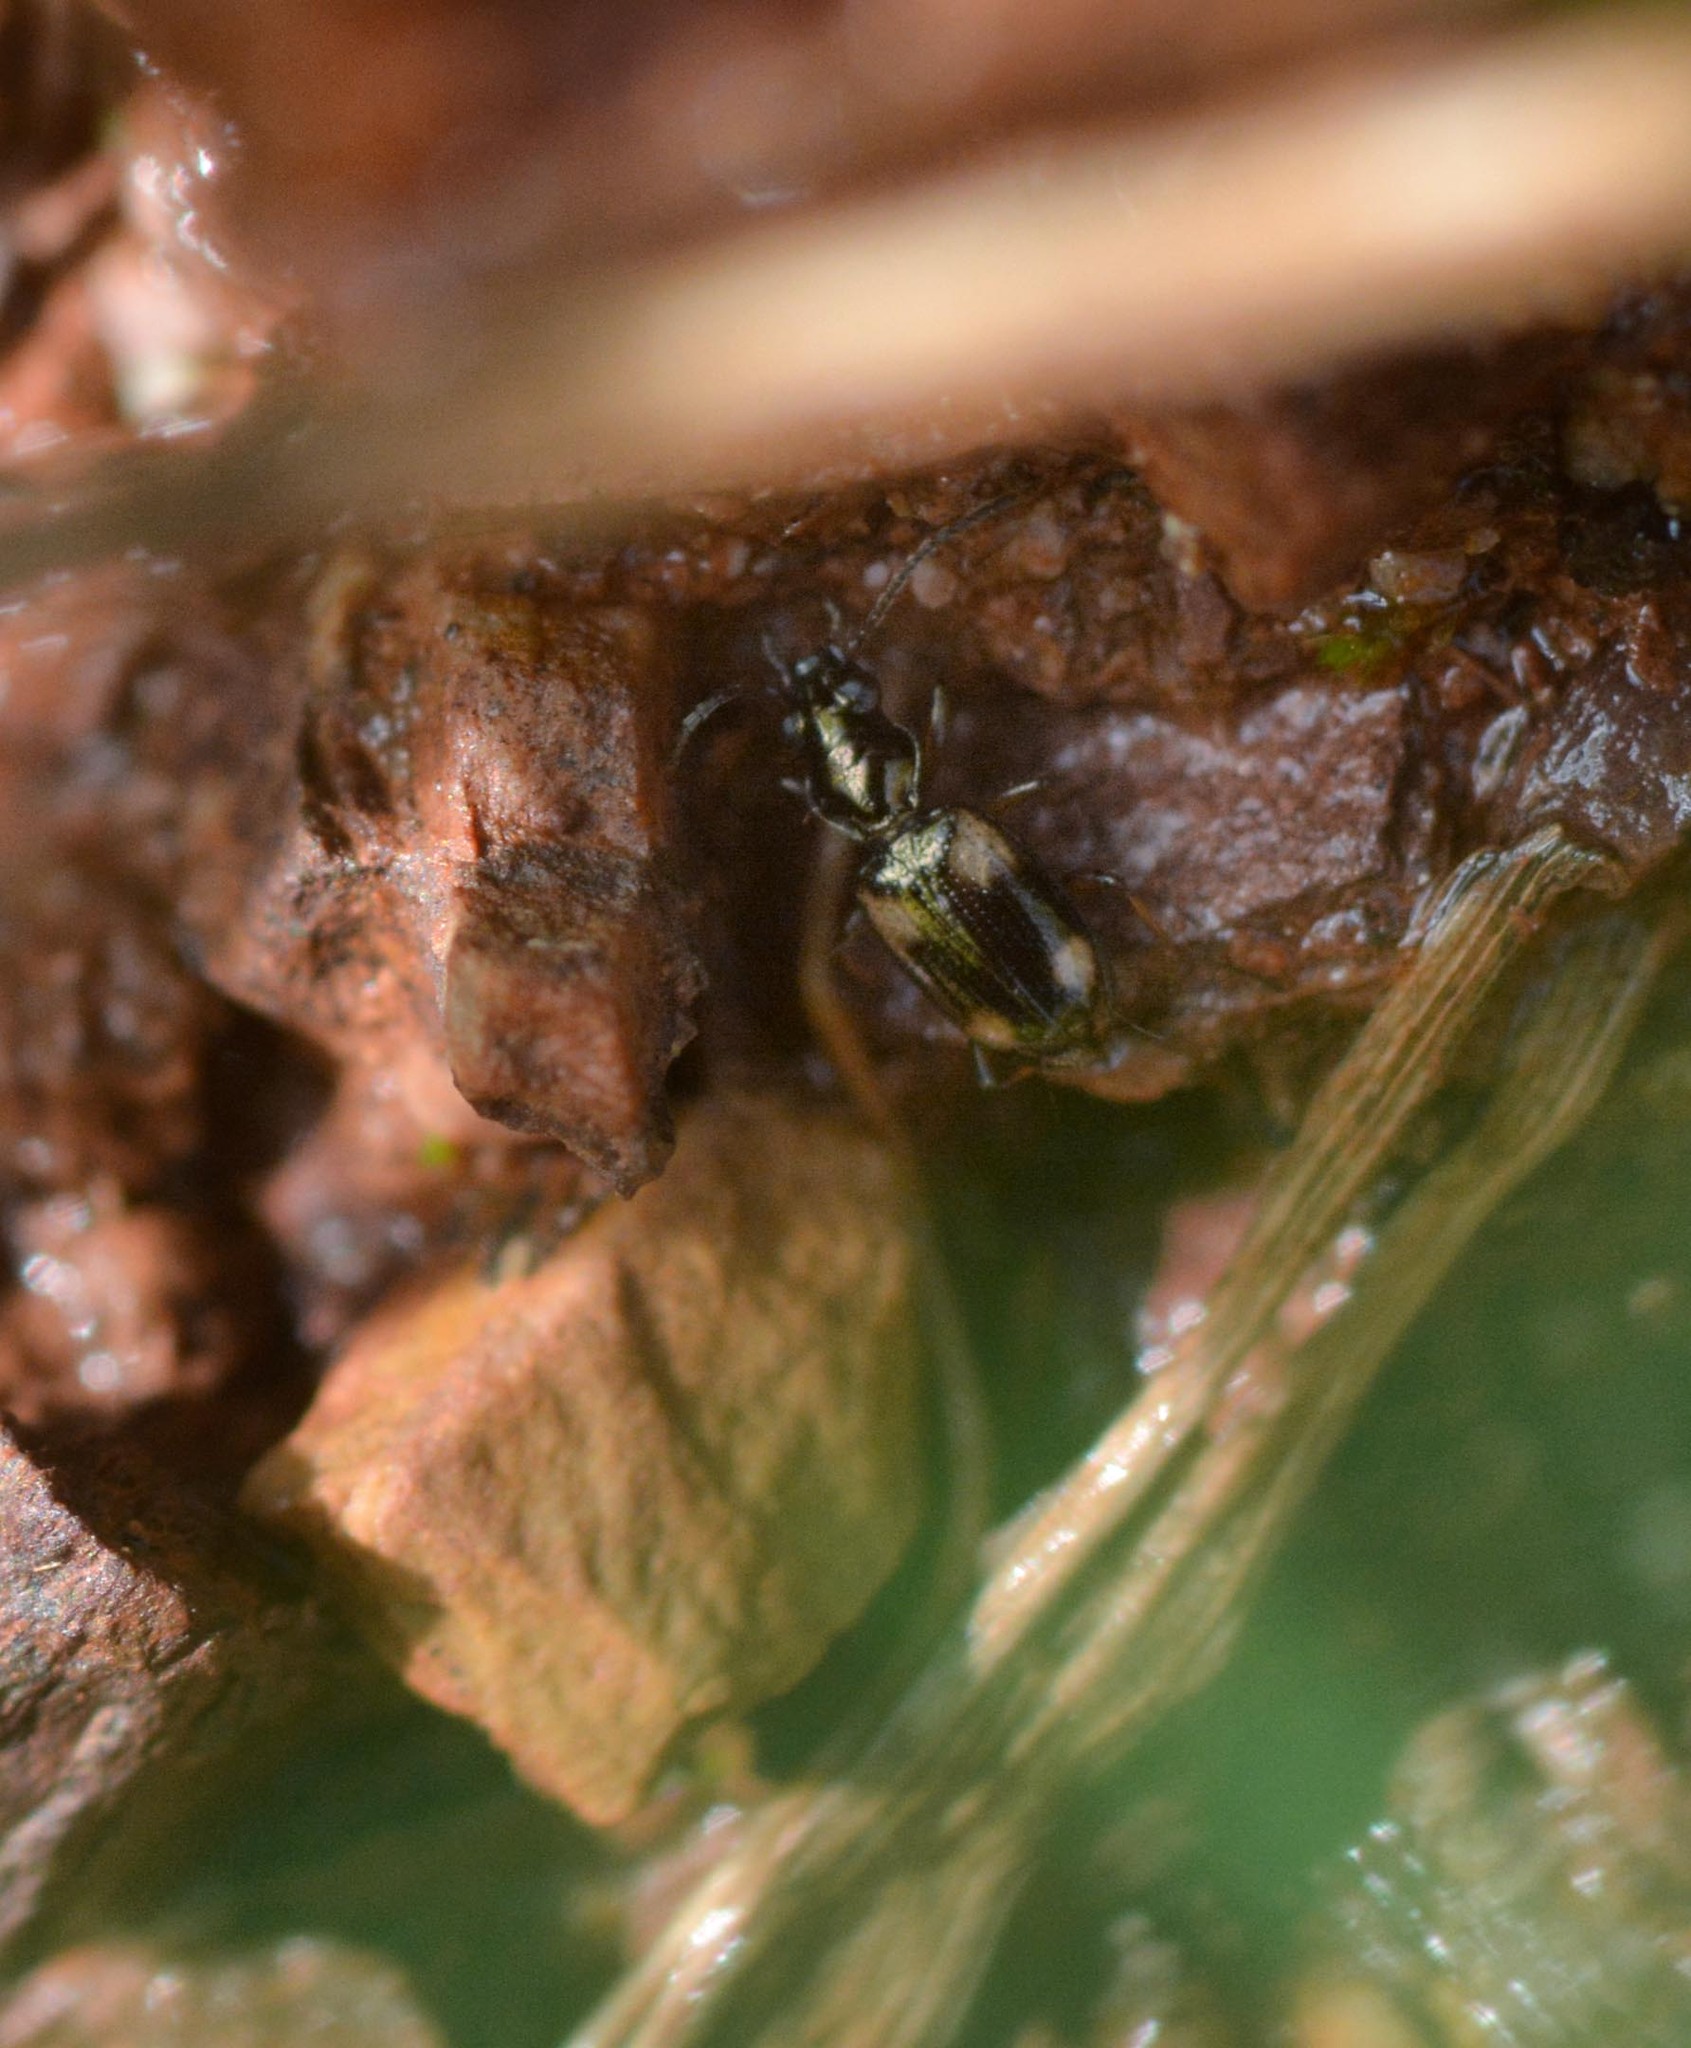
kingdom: Animalia
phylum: Arthropoda
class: Insecta
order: Coleoptera
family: Carabidae
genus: Bembidion
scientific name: Bembidion quadrimaculatum
